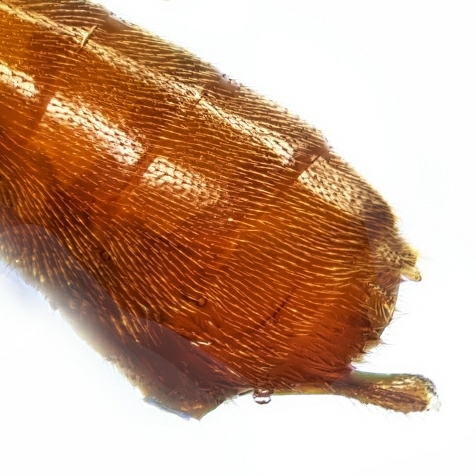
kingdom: Animalia
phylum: Arthropoda
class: Insecta
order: Hymenoptera
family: Braconidae
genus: Homolobus
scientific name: Homolobus infumator
